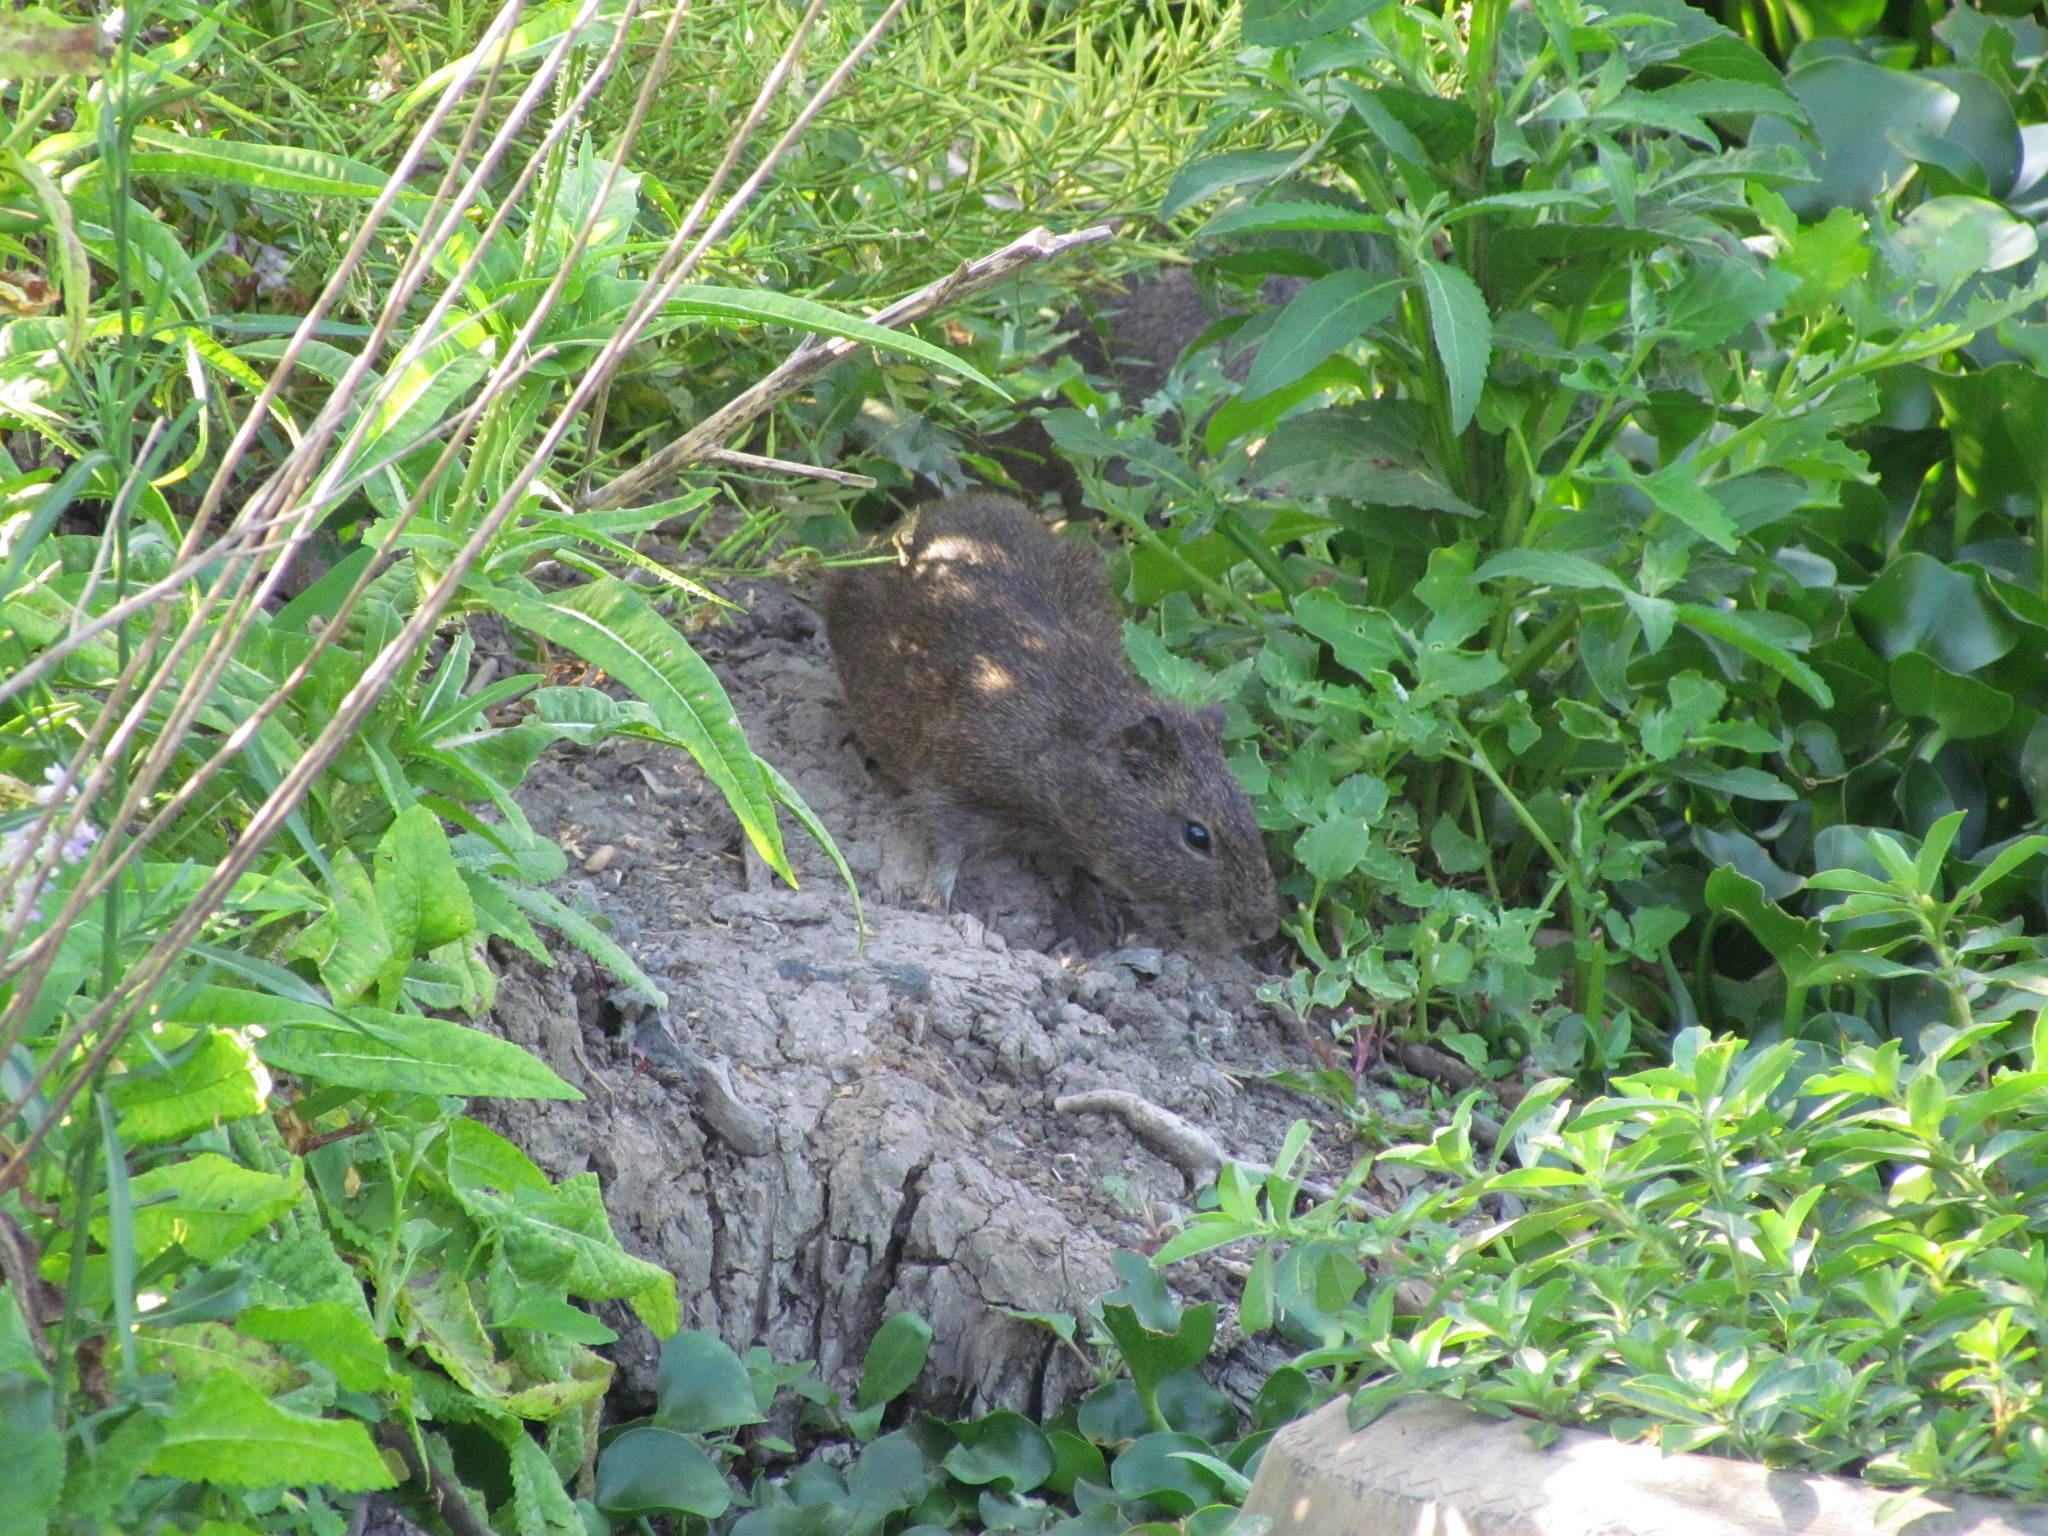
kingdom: Animalia
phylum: Chordata
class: Mammalia
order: Rodentia
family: Caviidae
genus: Cavia
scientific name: Cavia aperea
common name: Brazilian guinea pig
